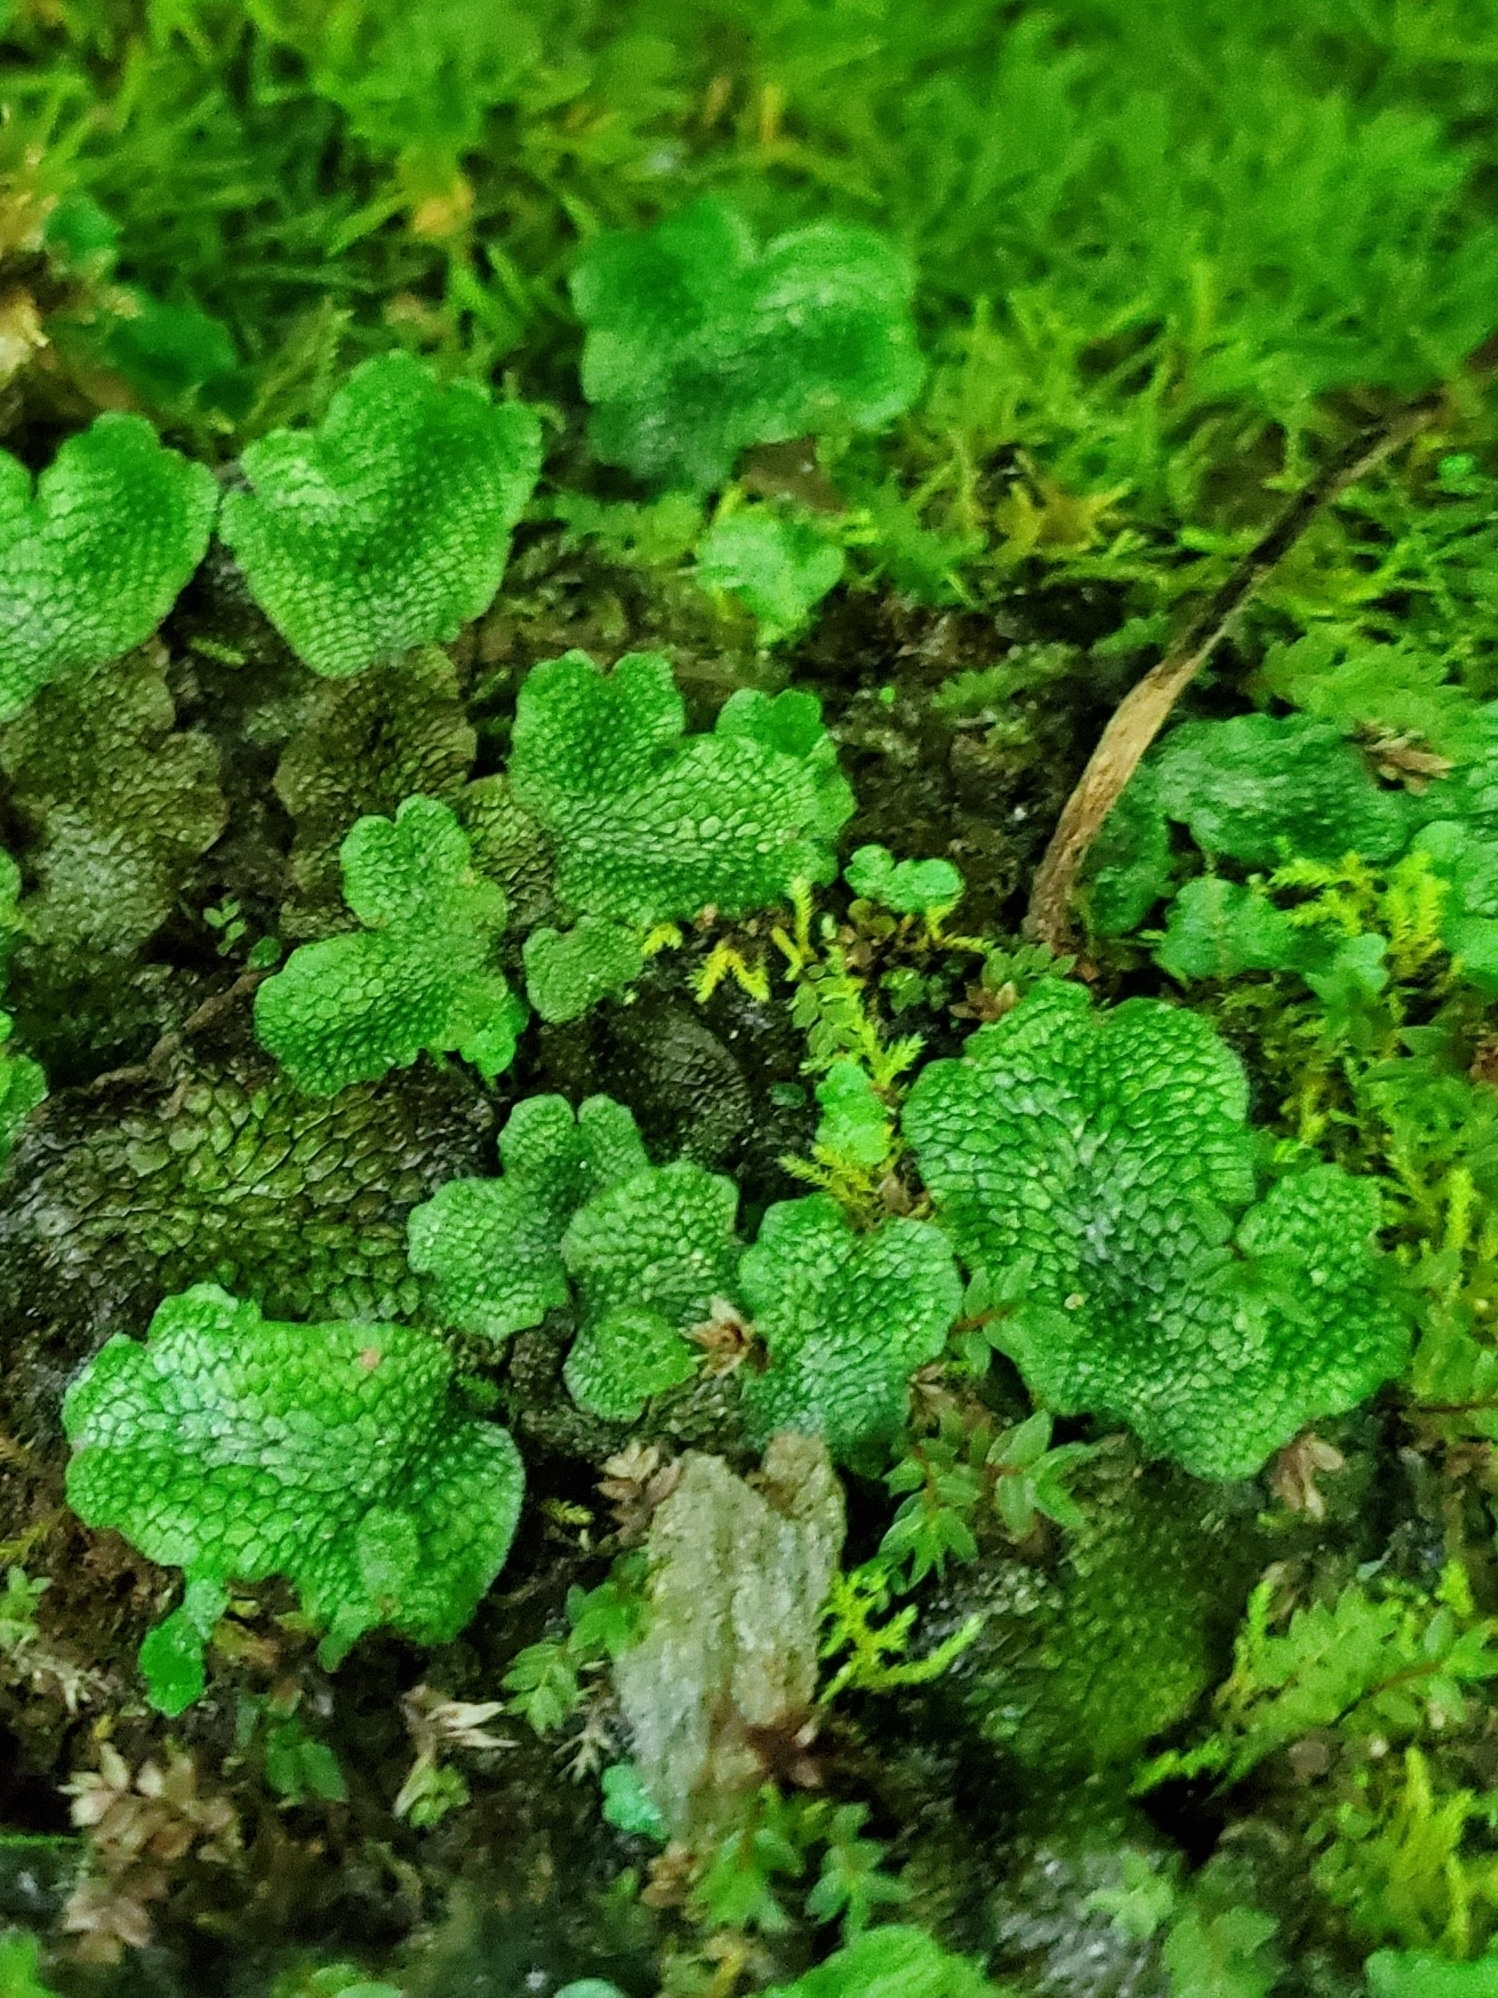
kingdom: Plantae
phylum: Marchantiophyta
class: Marchantiopsida
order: Marchantiales
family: Conocephalaceae
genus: Conocephalum
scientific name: Conocephalum salebrosum
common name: Cat-tongue liverwort
